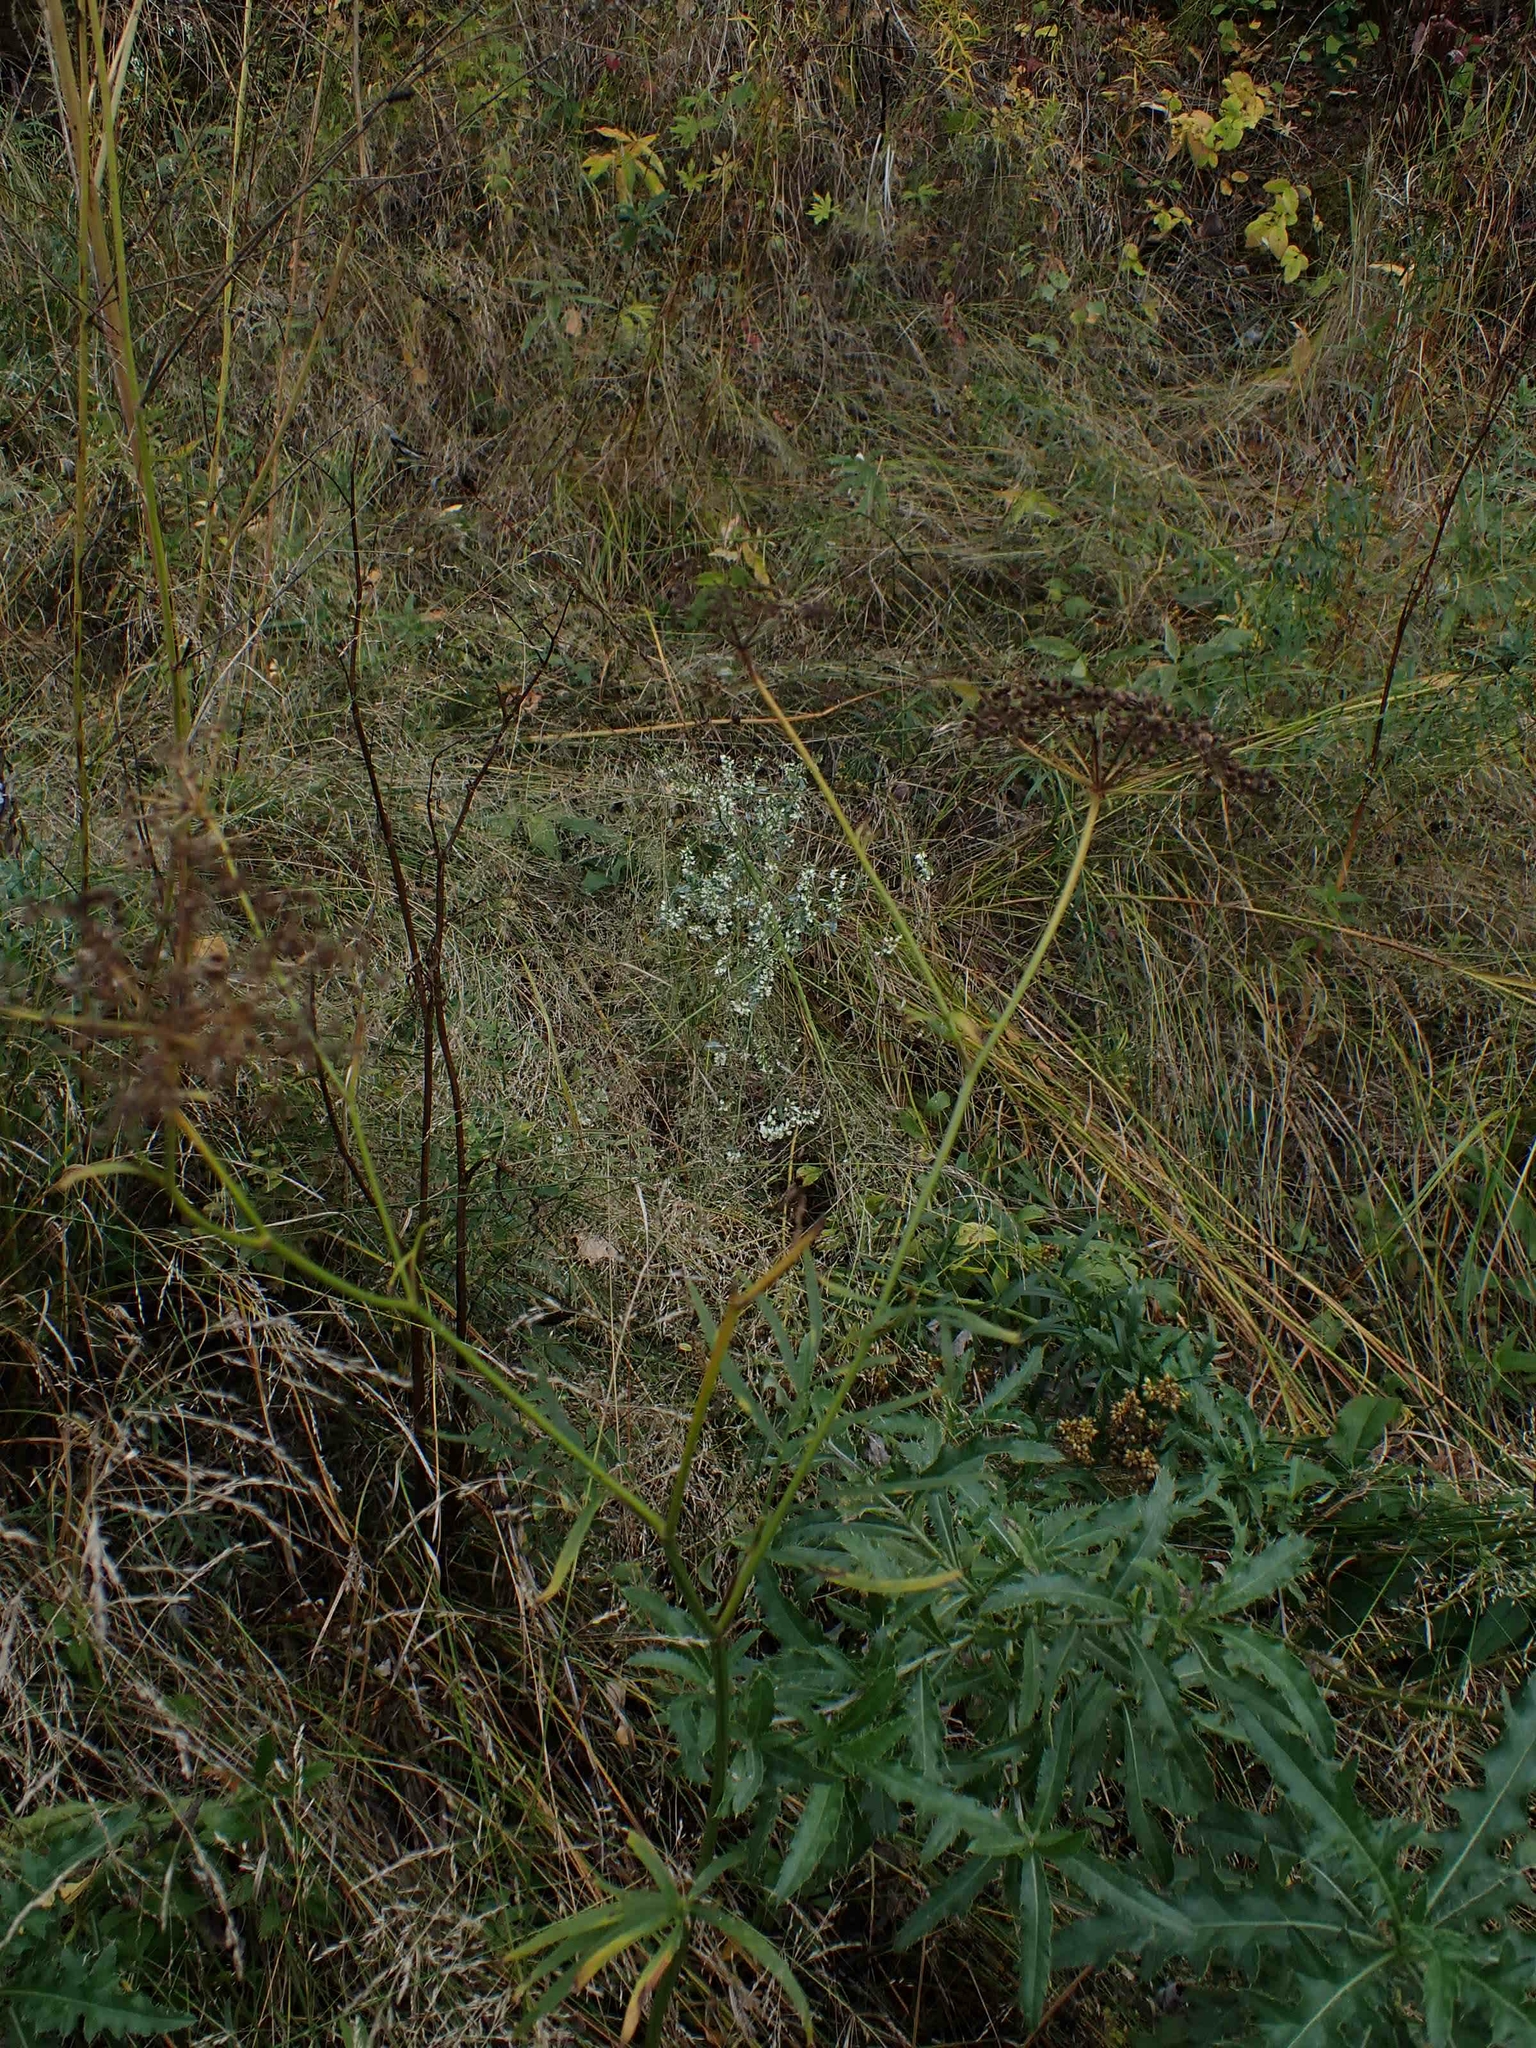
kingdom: Plantae
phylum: Tracheophyta
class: Magnoliopsida
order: Apiales
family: Apiaceae
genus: Sium
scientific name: Sium suave
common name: Hemlock water-parsnip
